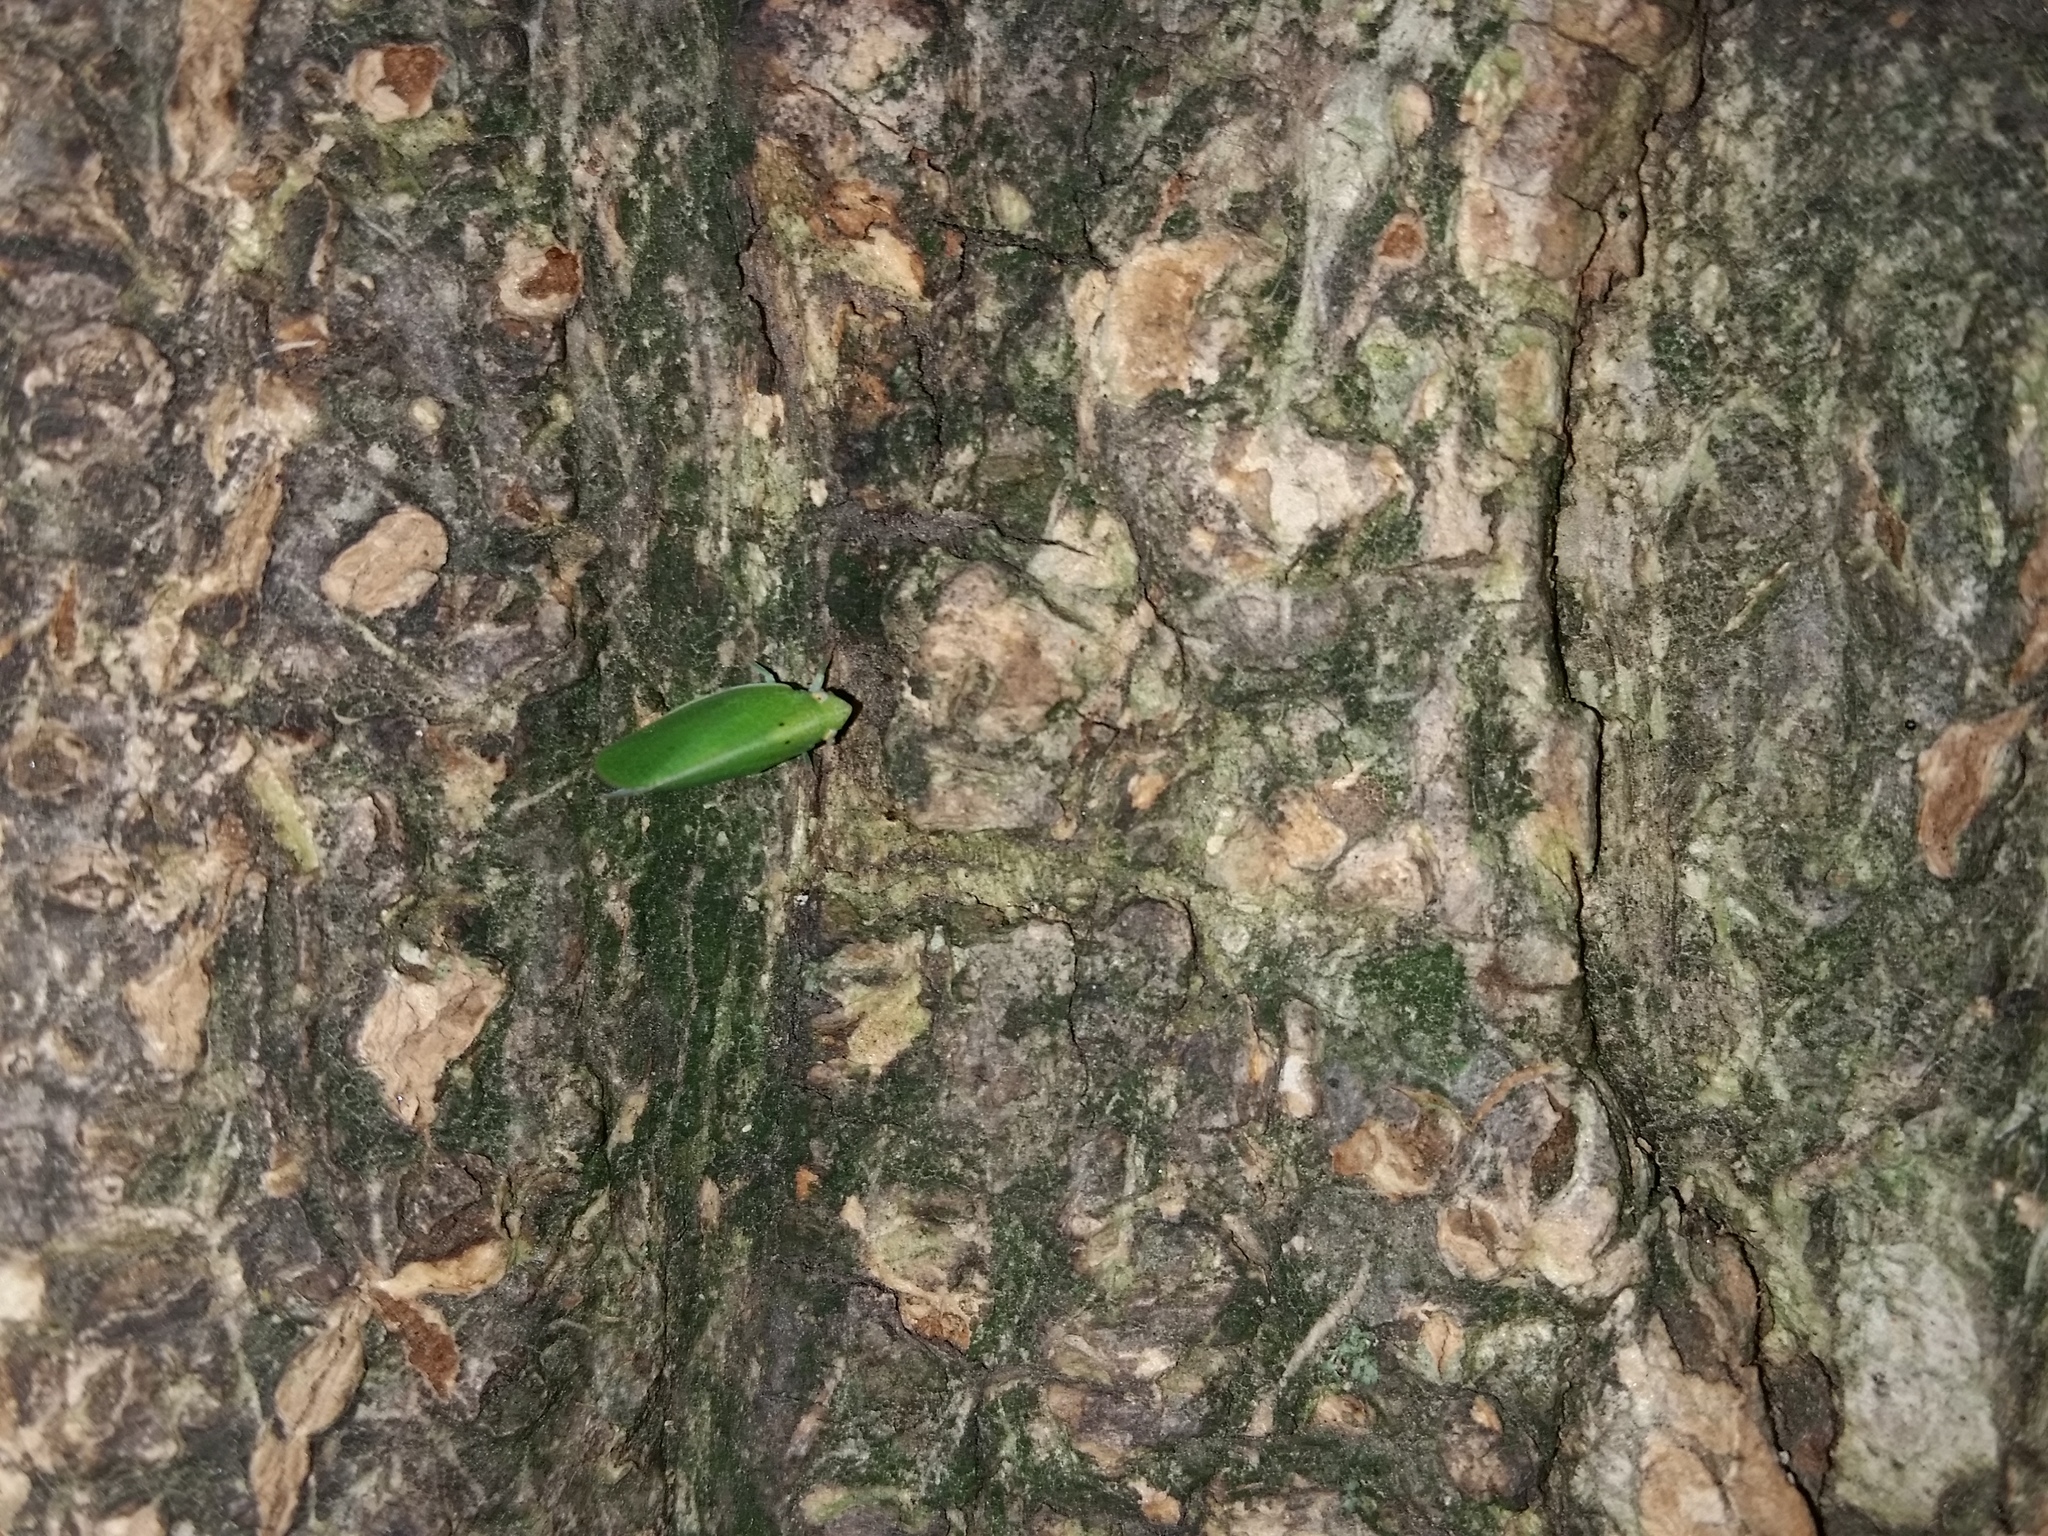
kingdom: Animalia
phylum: Arthropoda
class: Insecta
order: Hemiptera
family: Acanaloniidae
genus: Acanalonia
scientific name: Acanalonia conica
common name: Green cone-headed planthopper
